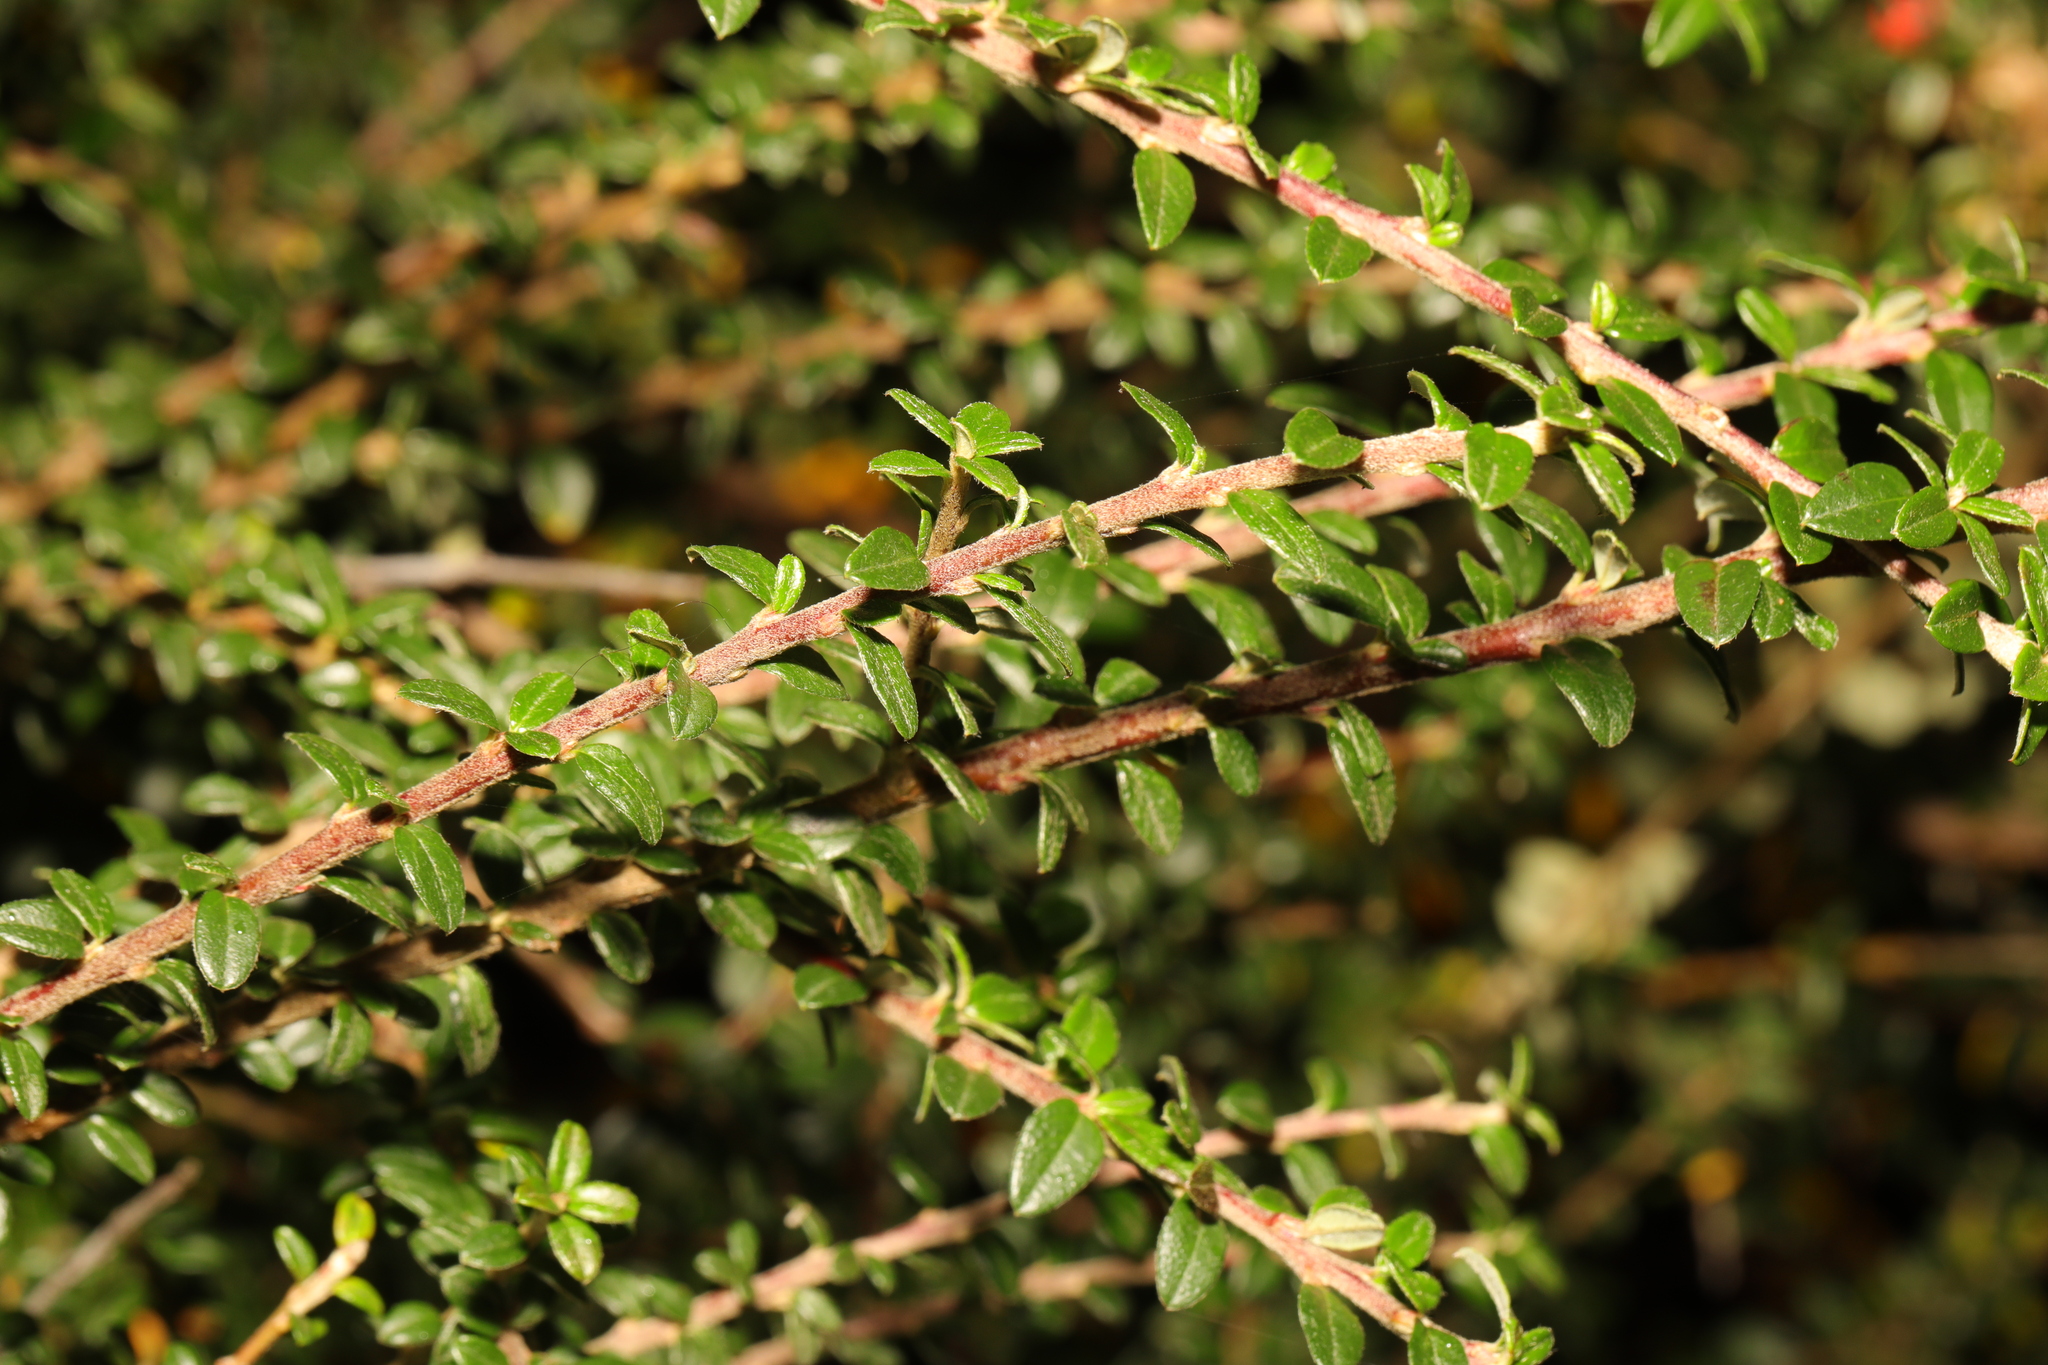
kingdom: Plantae
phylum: Tracheophyta
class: Magnoliopsida
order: Dipsacales
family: Caprifoliaceae
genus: Lonicera
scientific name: Lonicera ligustrina
